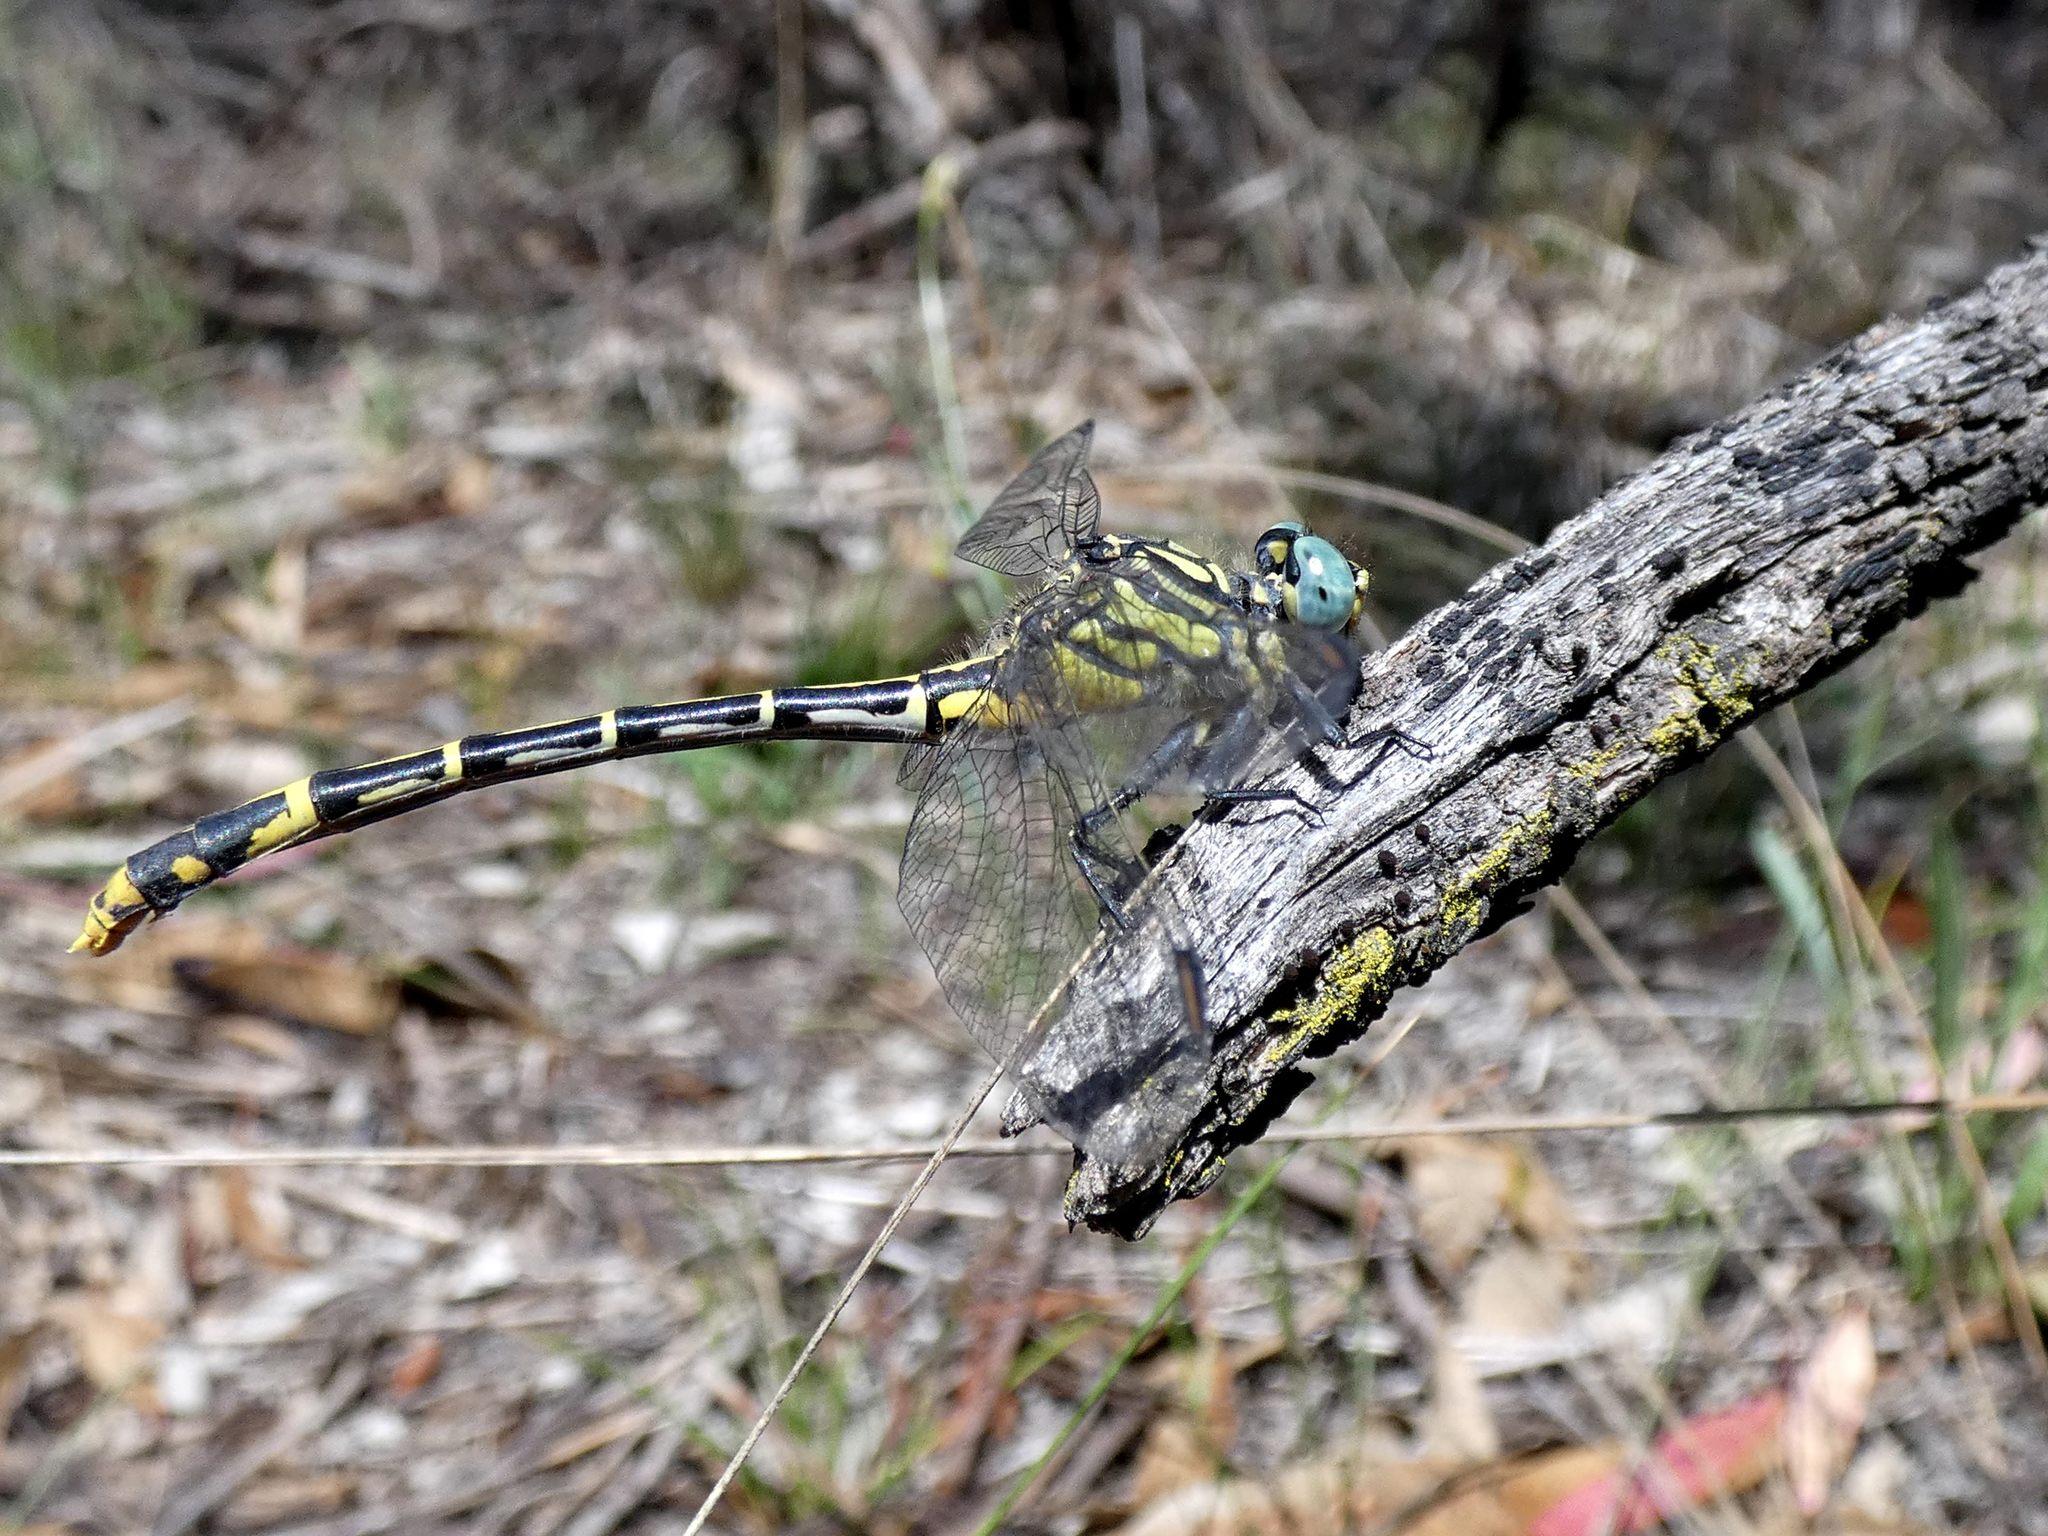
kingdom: Animalia
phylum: Arthropoda
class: Insecta
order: Odonata
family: Gomphidae
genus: Austrogomphus
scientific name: Austrogomphus australis
